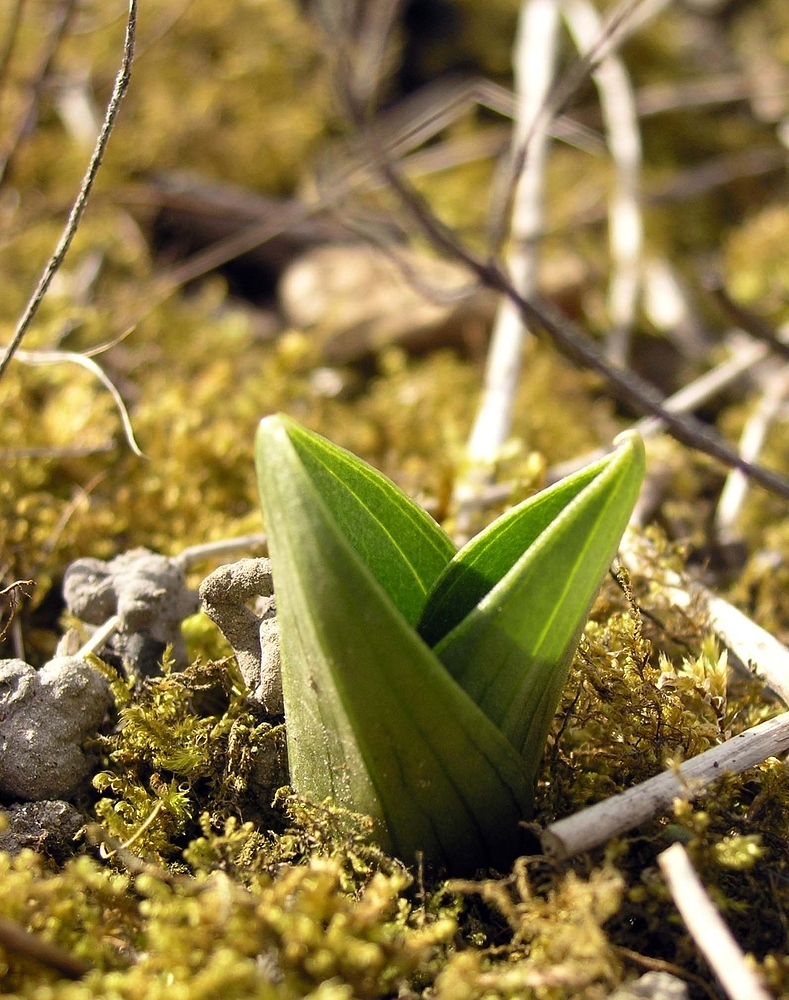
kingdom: Plantae
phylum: Tracheophyta
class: Liliopsida
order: Asparagales
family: Orchidaceae
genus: Neottia
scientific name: Neottia ovata
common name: Common twayblade
